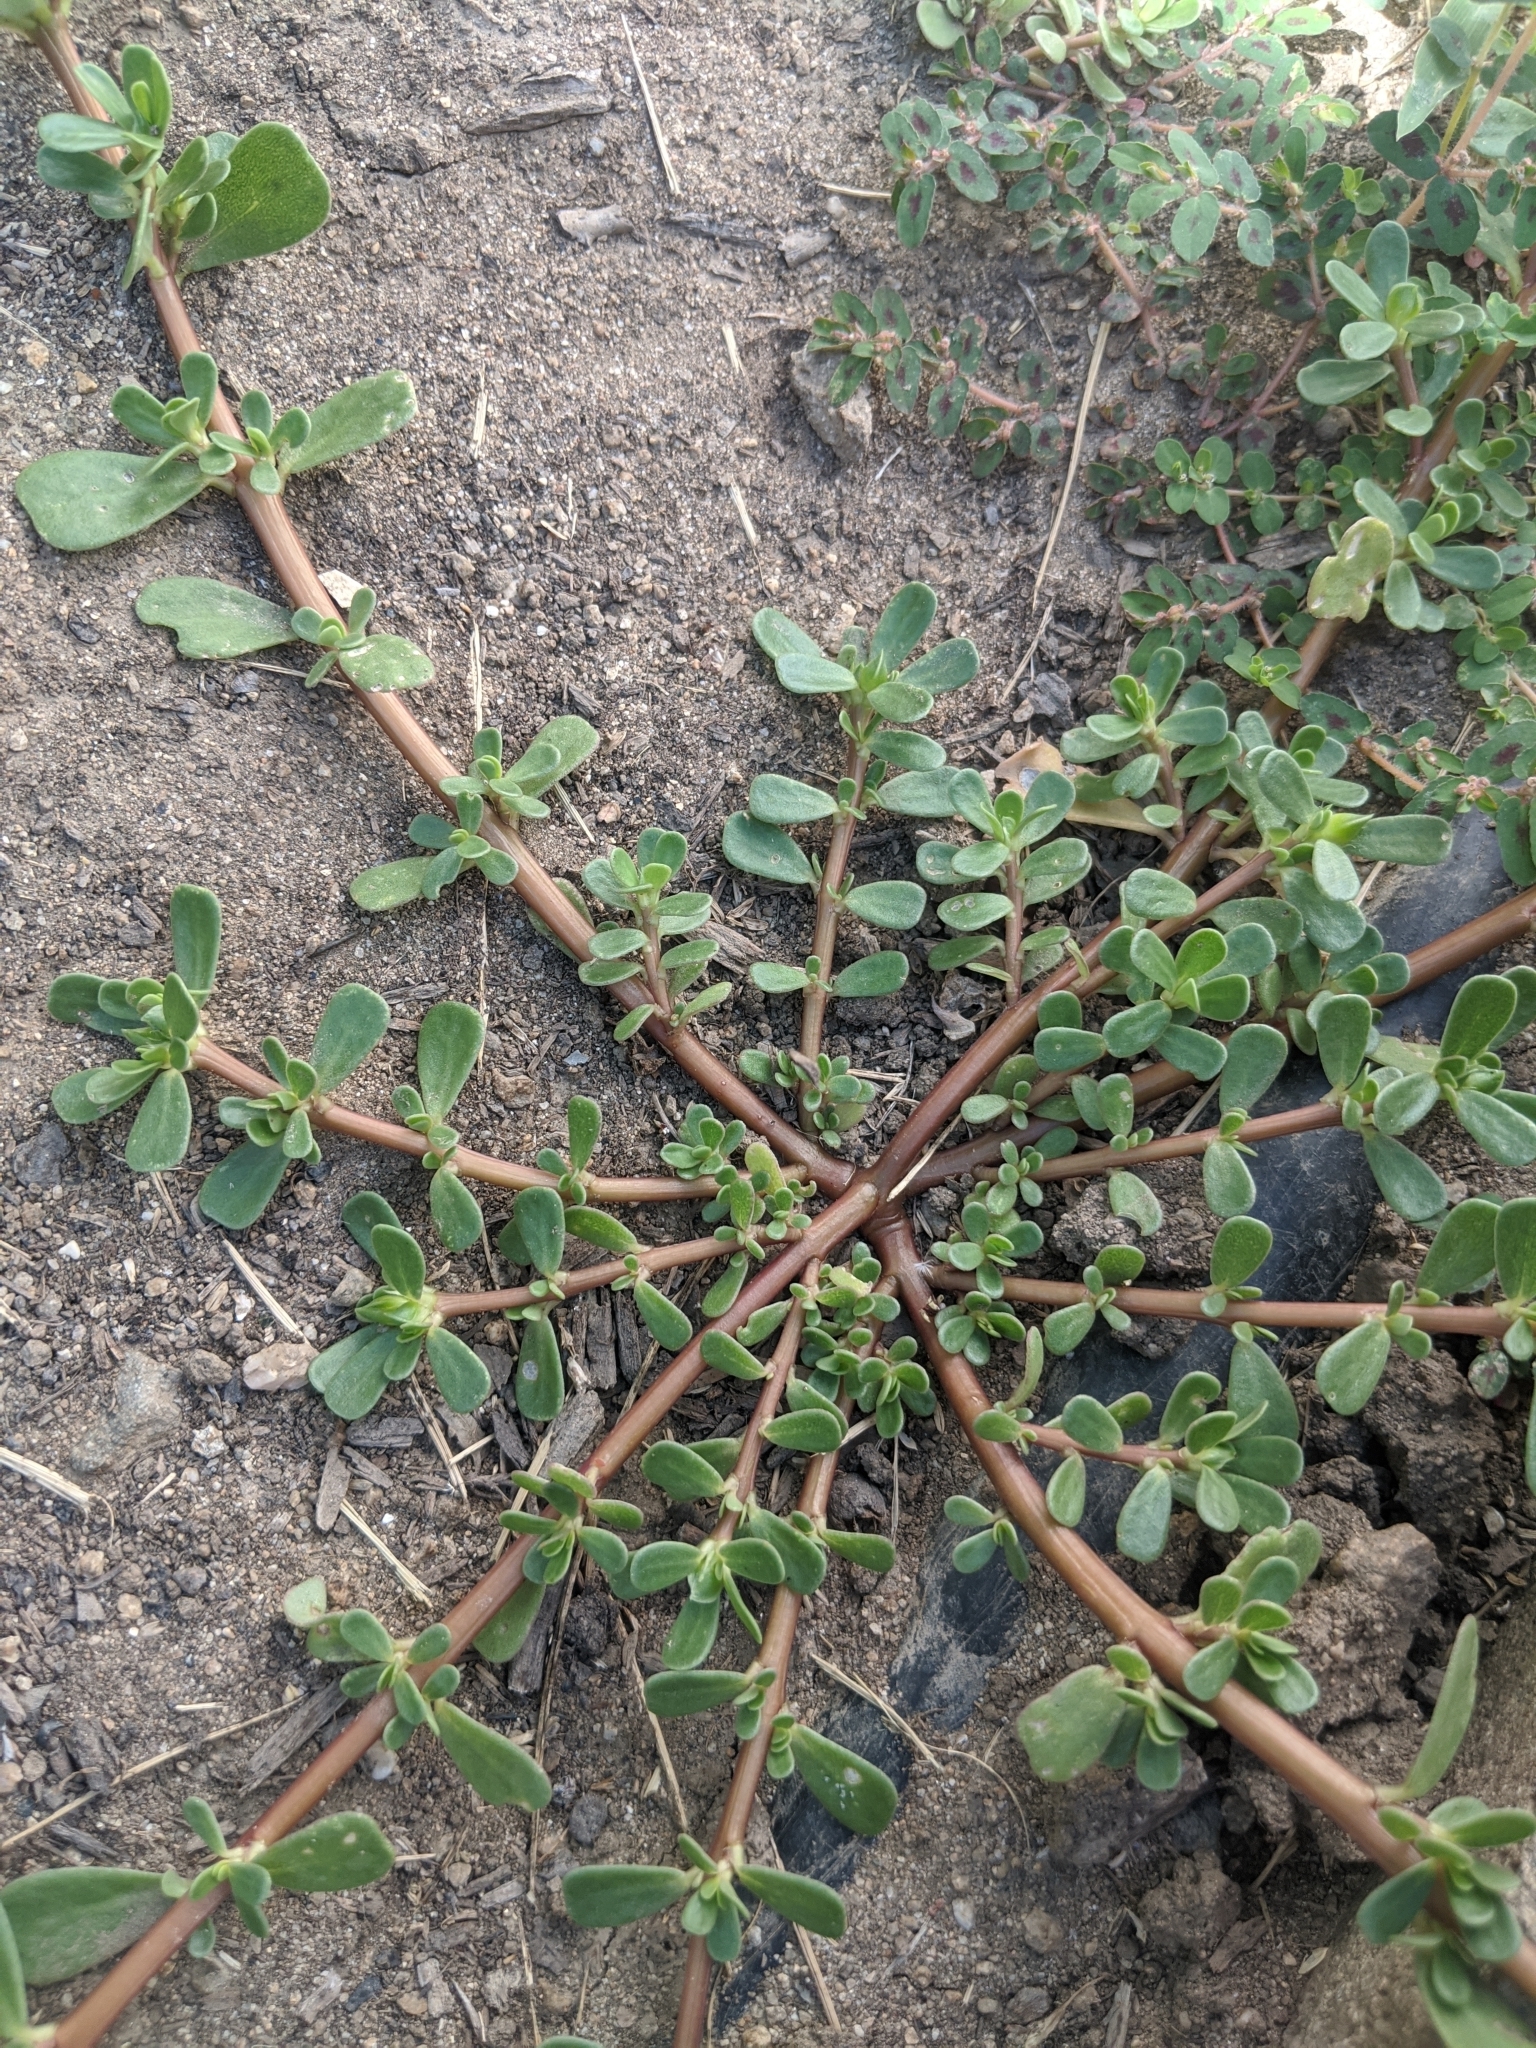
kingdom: Plantae
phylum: Tracheophyta
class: Magnoliopsida
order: Caryophyllales
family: Portulacaceae
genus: Portulaca
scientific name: Portulaca oleracea
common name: Common purslane
